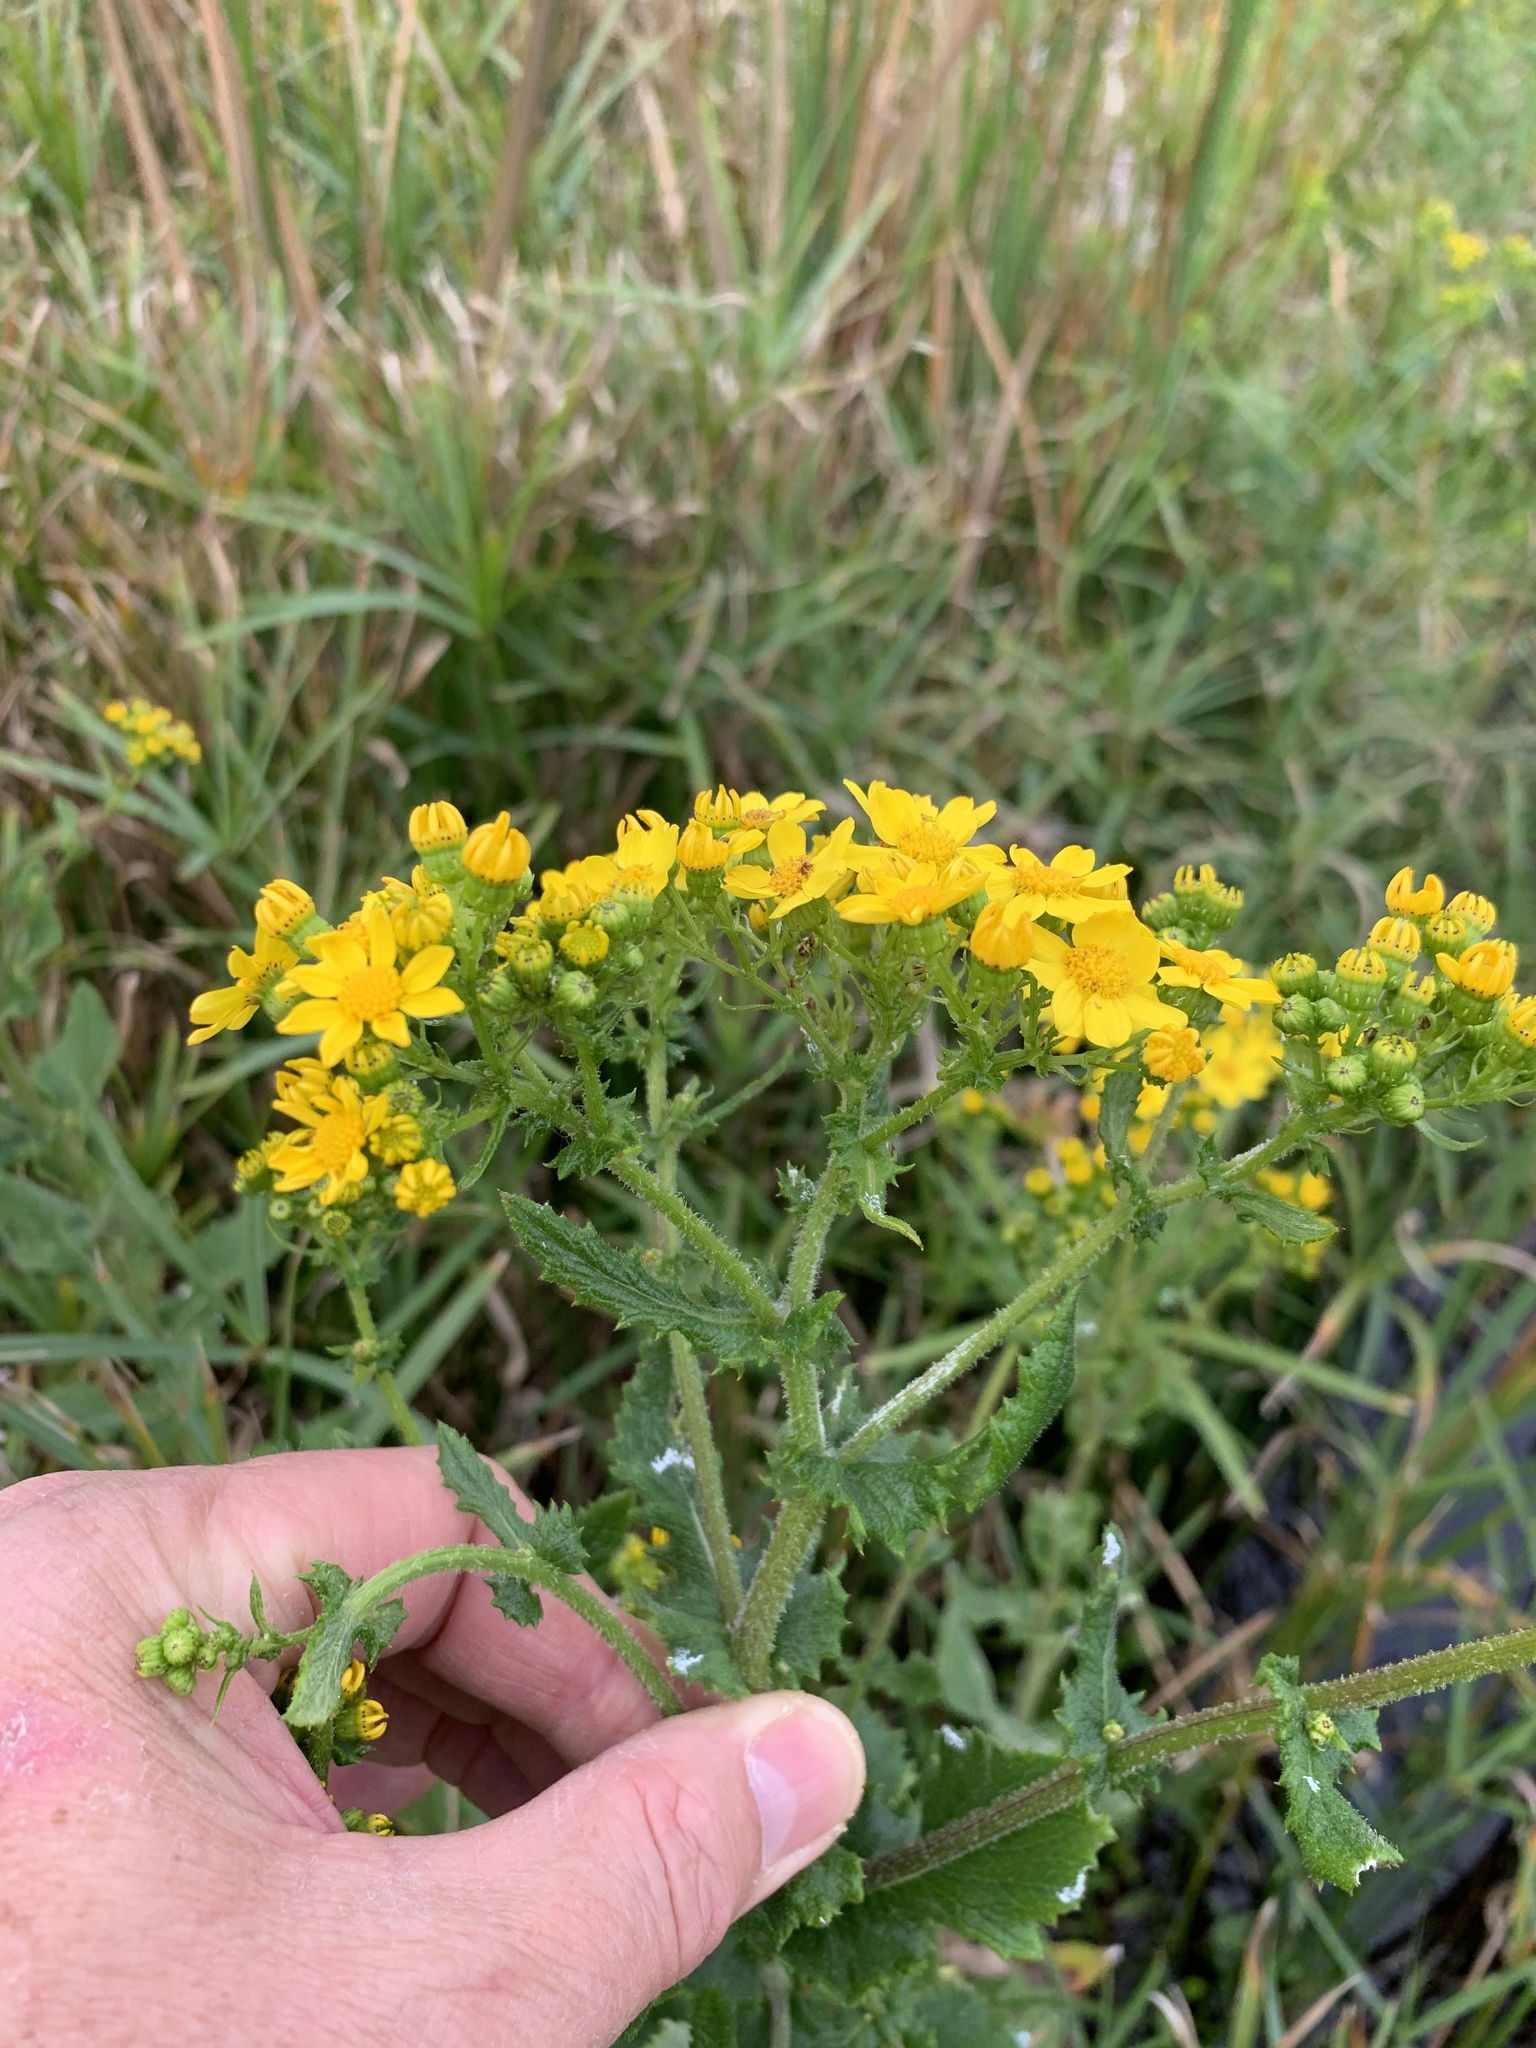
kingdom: Plantae
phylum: Tracheophyta
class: Magnoliopsida
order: Asterales
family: Asteraceae
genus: Senecio
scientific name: Senecio subcanescens
